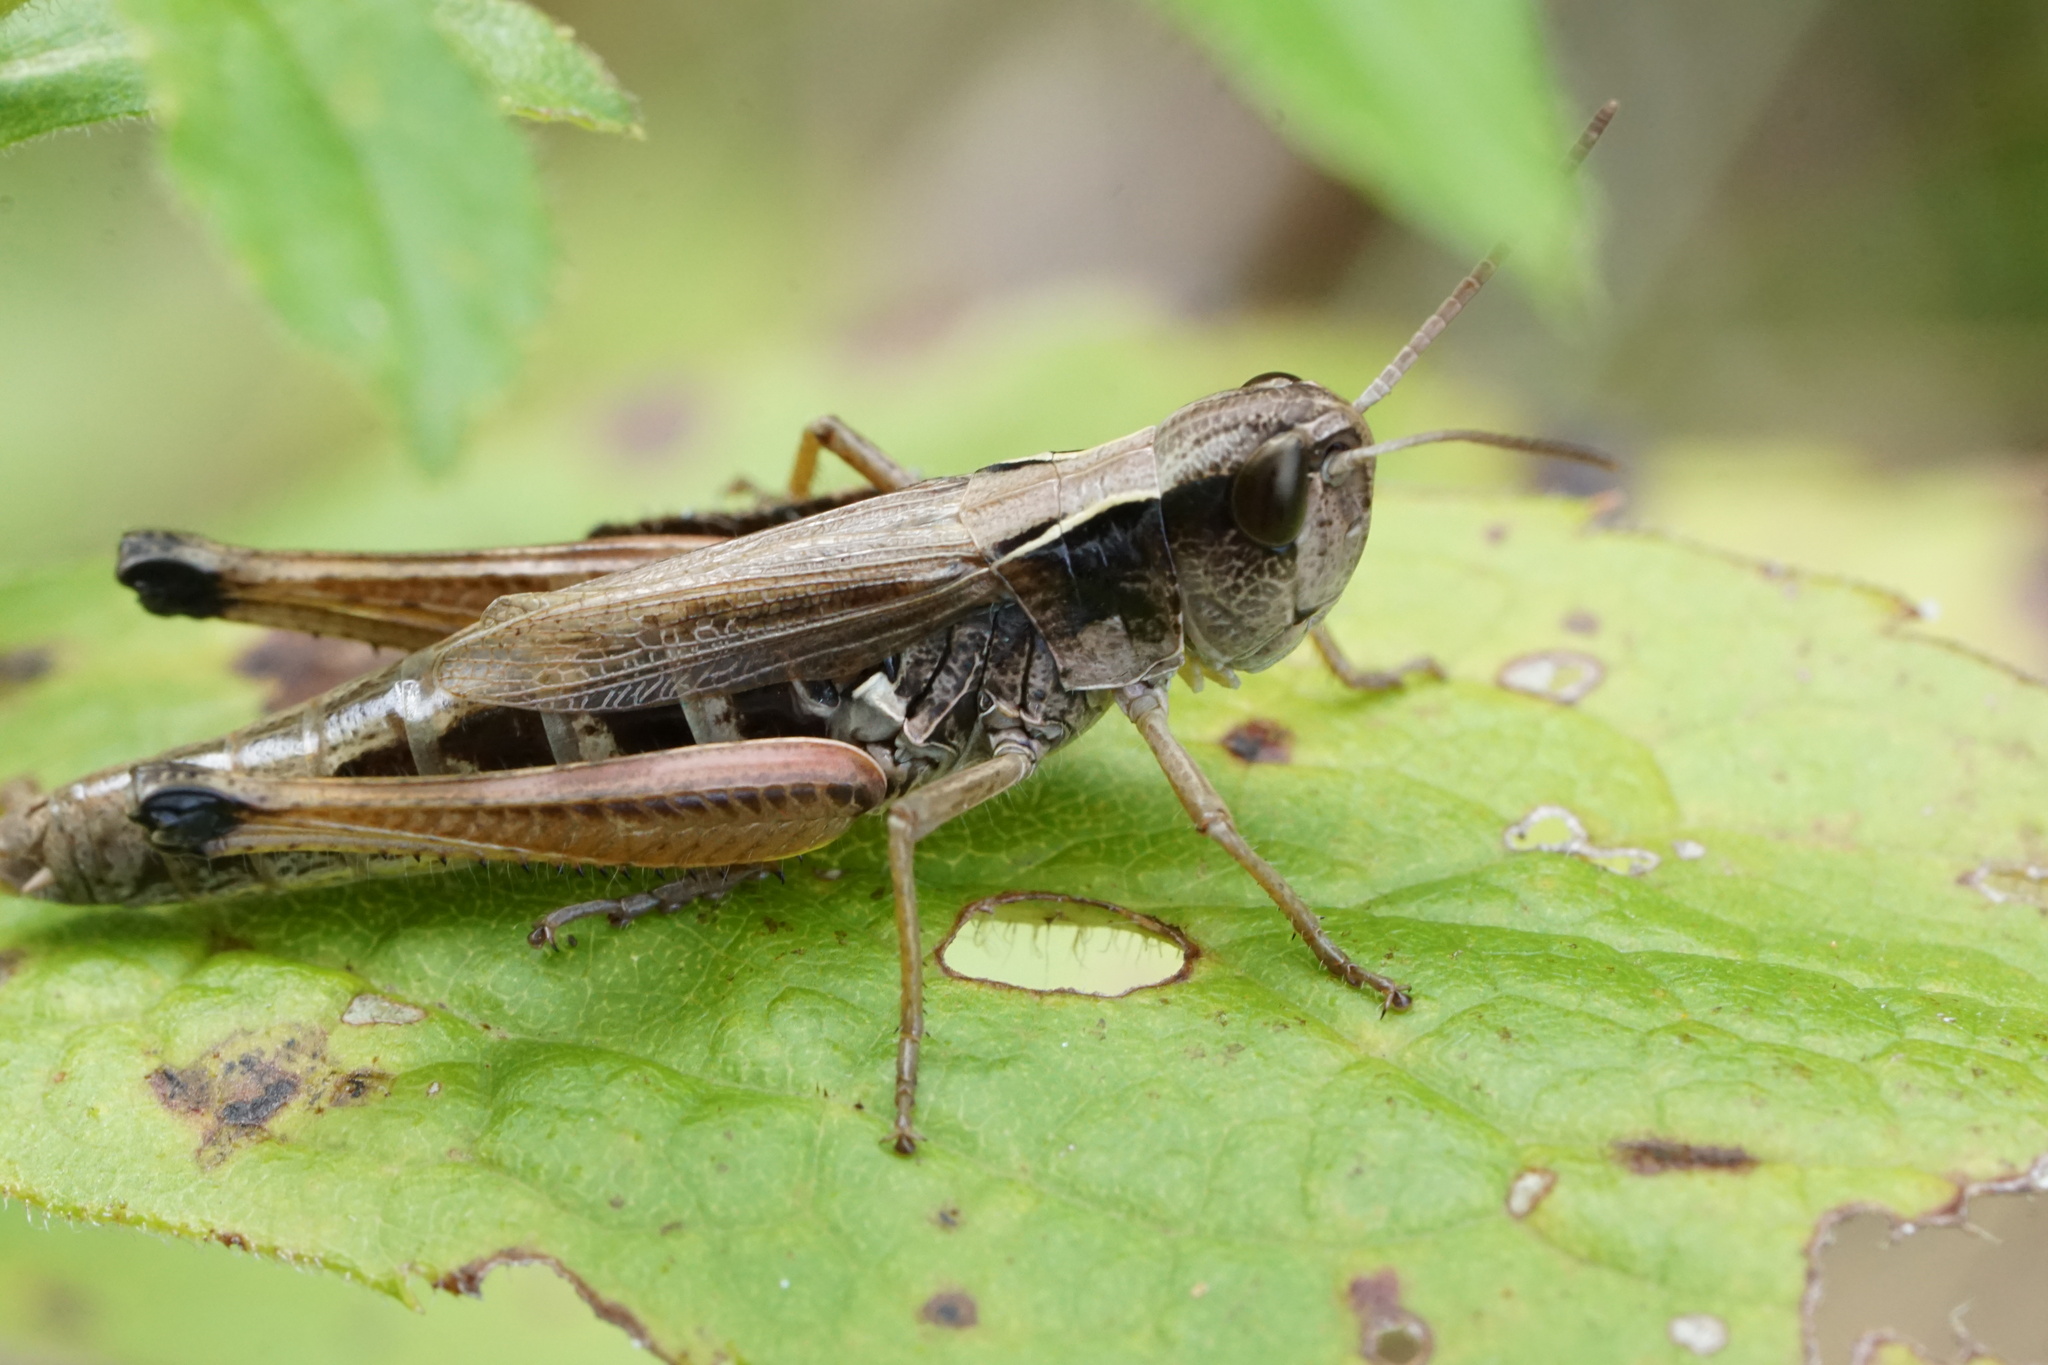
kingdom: Animalia
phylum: Arthropoda
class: Insecta
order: Orthoptera
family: Acrididae
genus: Pseudochorthippus
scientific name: Pseudochorthippus curtipennis
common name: Marsh meadow grasshopper
